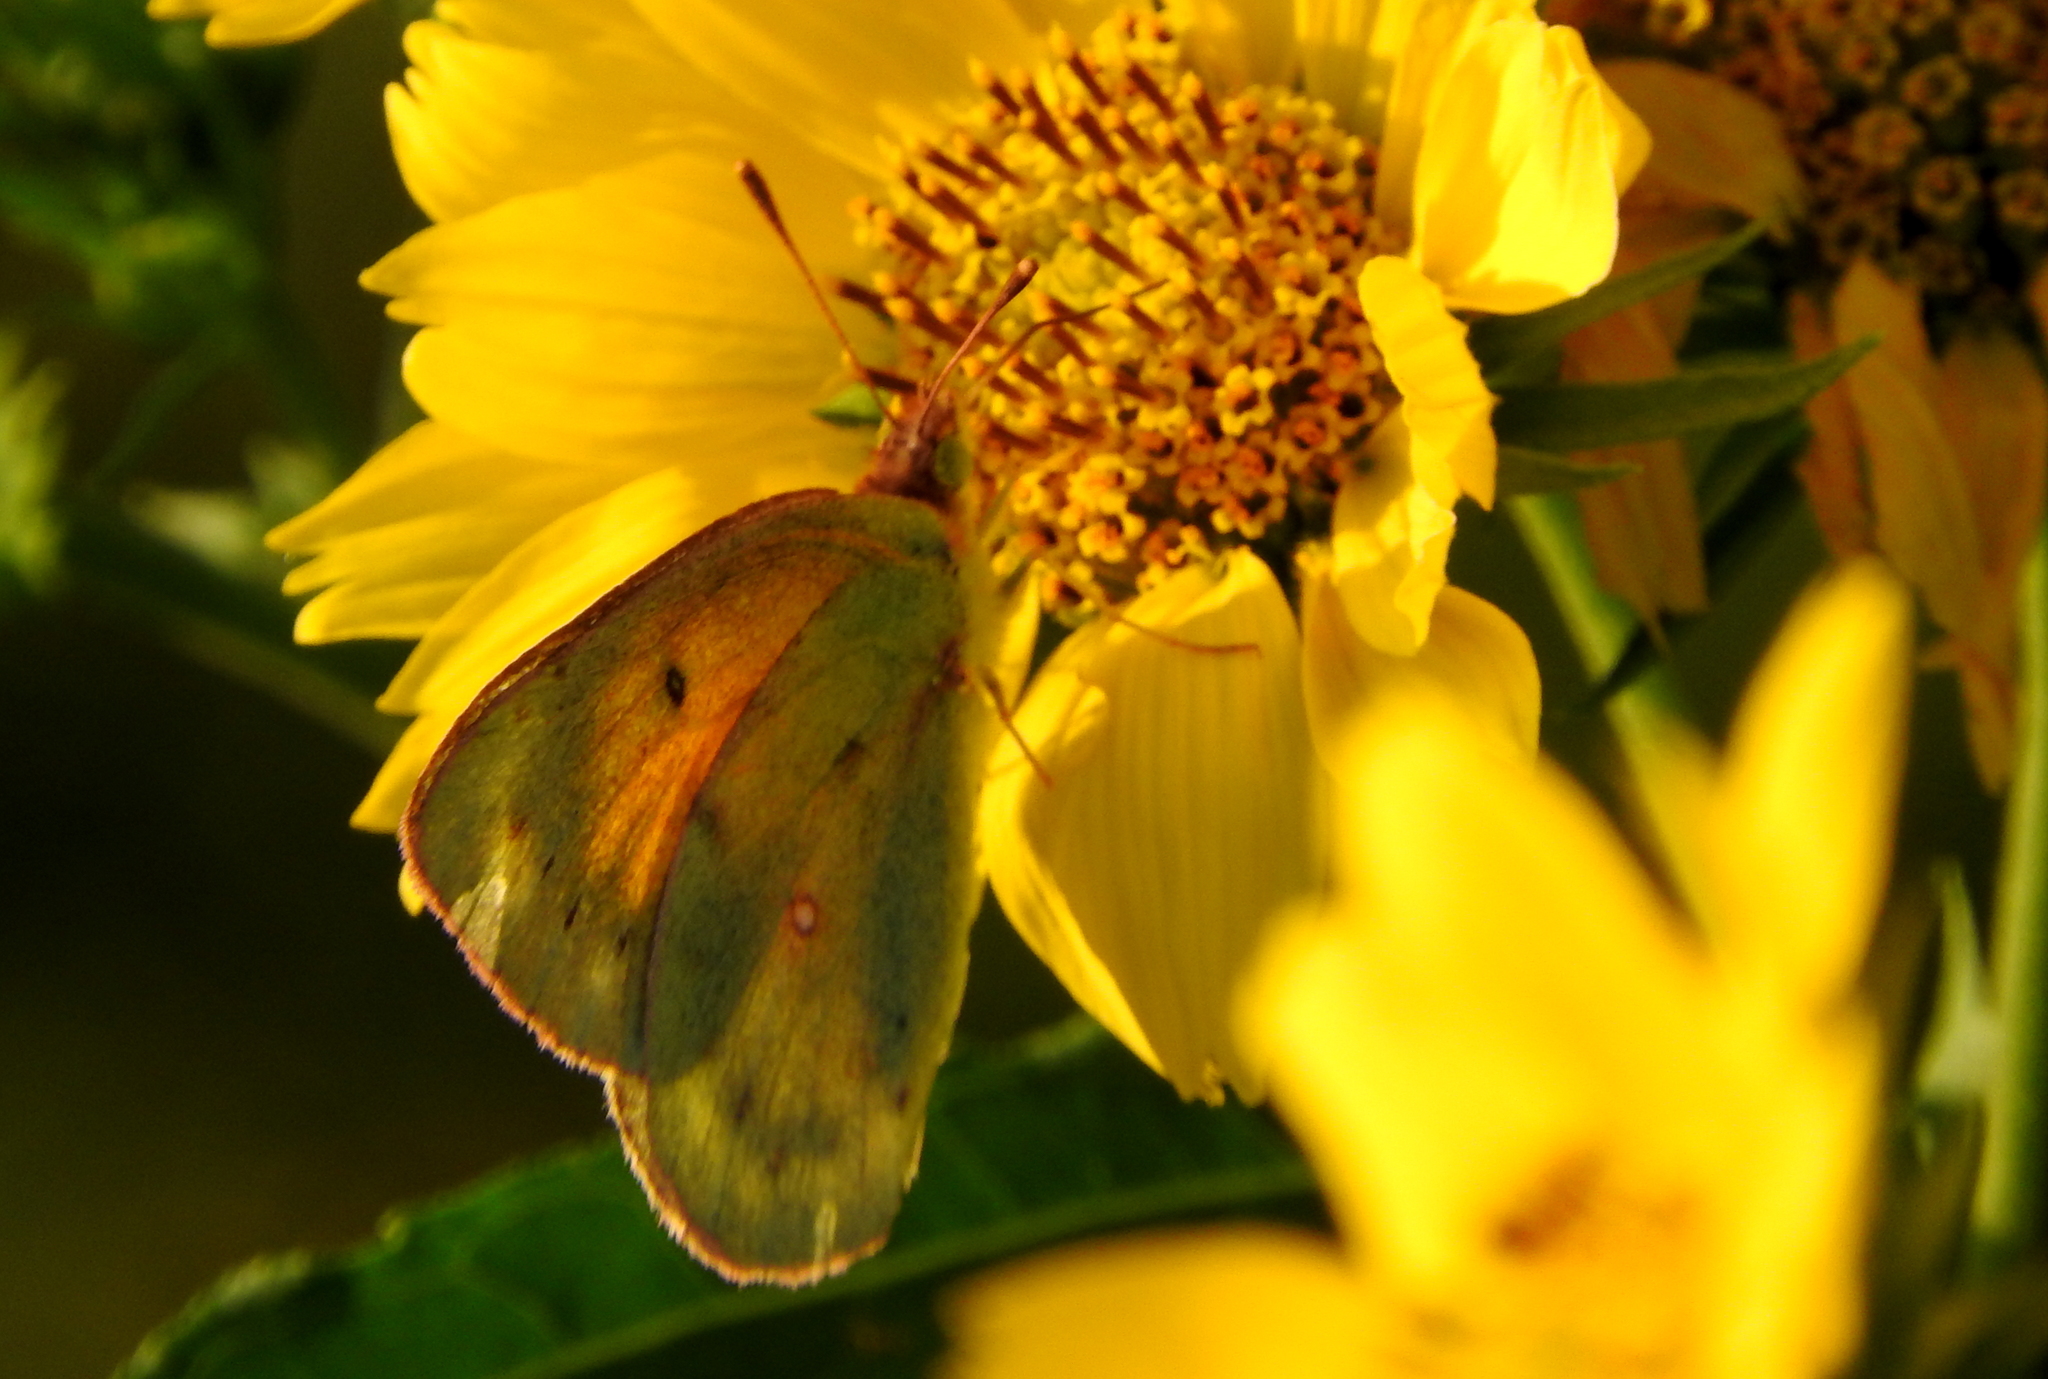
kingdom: Animalia
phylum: Arthropoda
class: Insecta
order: Lepidoptera
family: Pieridae
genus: Colias
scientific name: Colias lesbia
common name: Lesbia clouded yellow
